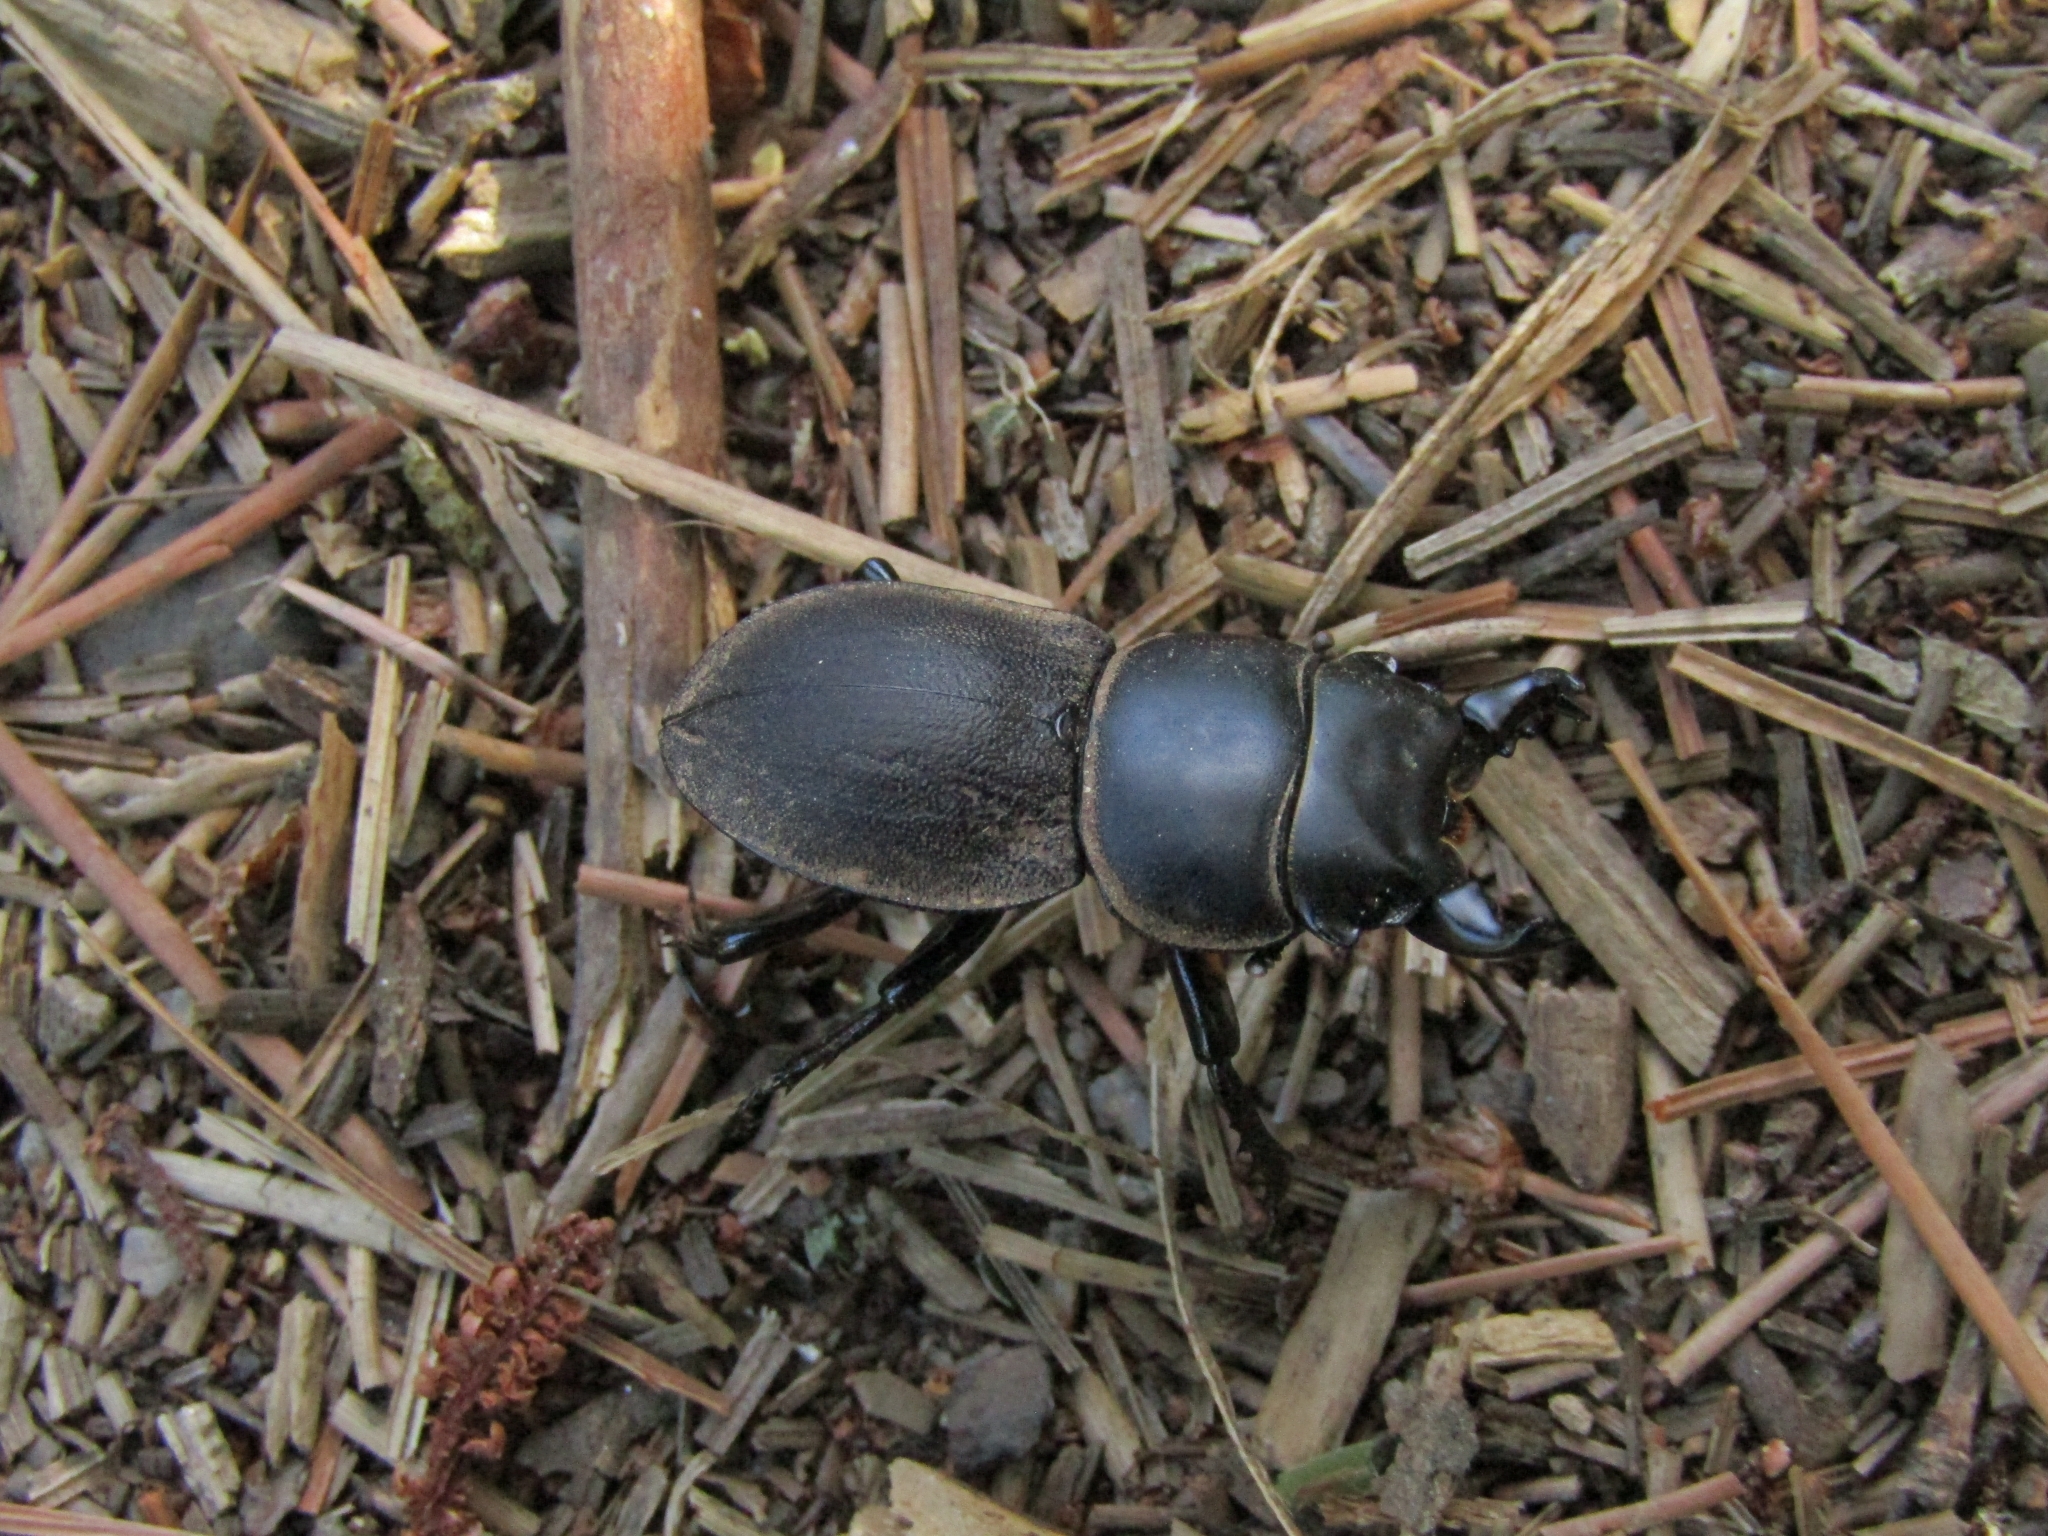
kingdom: Animalia
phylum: Arthropoda
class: Insecta
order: Coleoptera
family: Lucanidae
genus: Apterodorcus
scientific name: Apterodorcus bacchus
